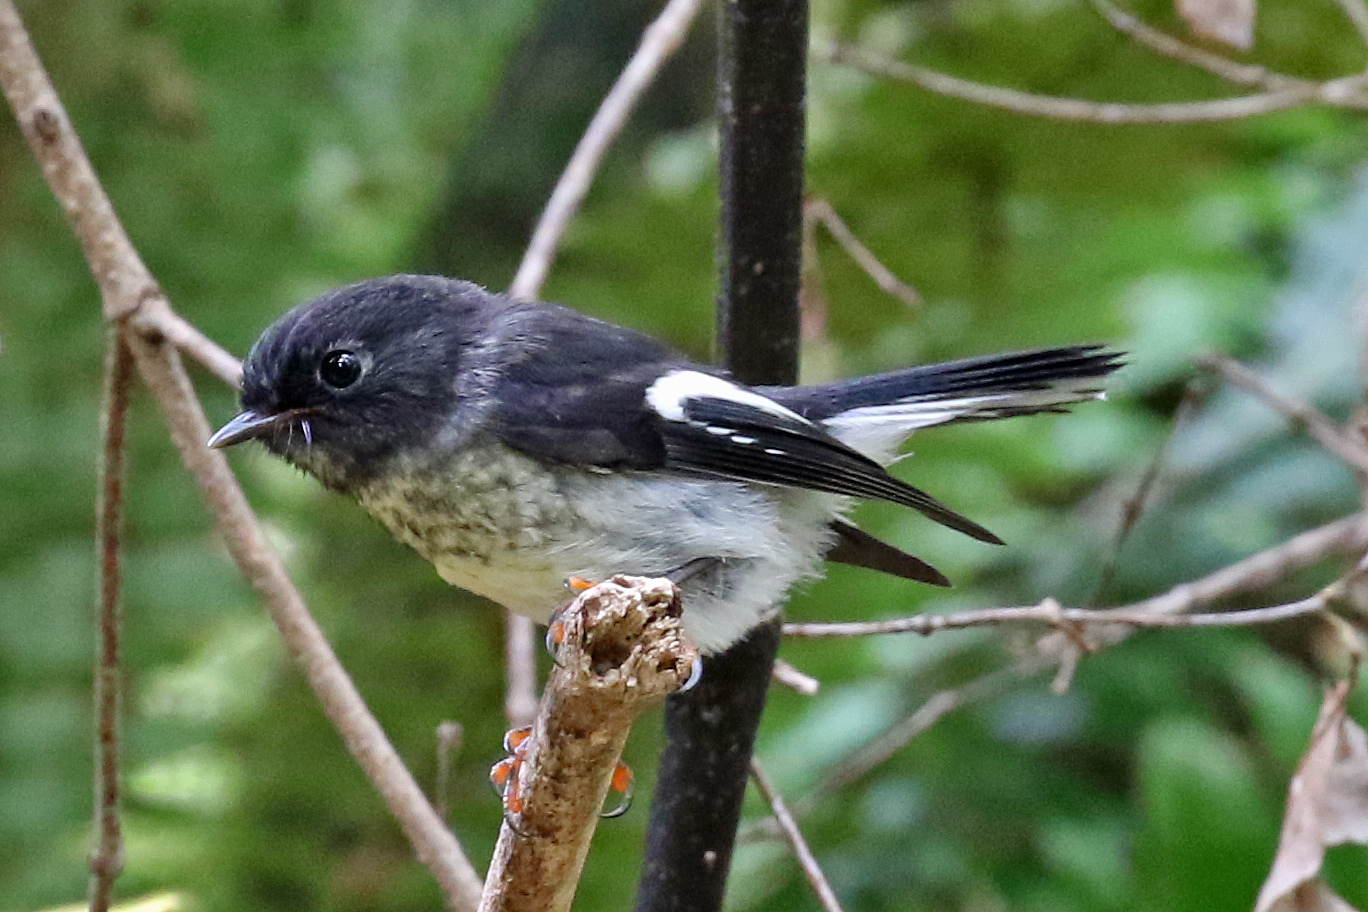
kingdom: Animalia
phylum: Chordata
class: Aves
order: Passeriformes
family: Petroicidae
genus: Petroica
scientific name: Petroica macrocephala
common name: Tomtit
